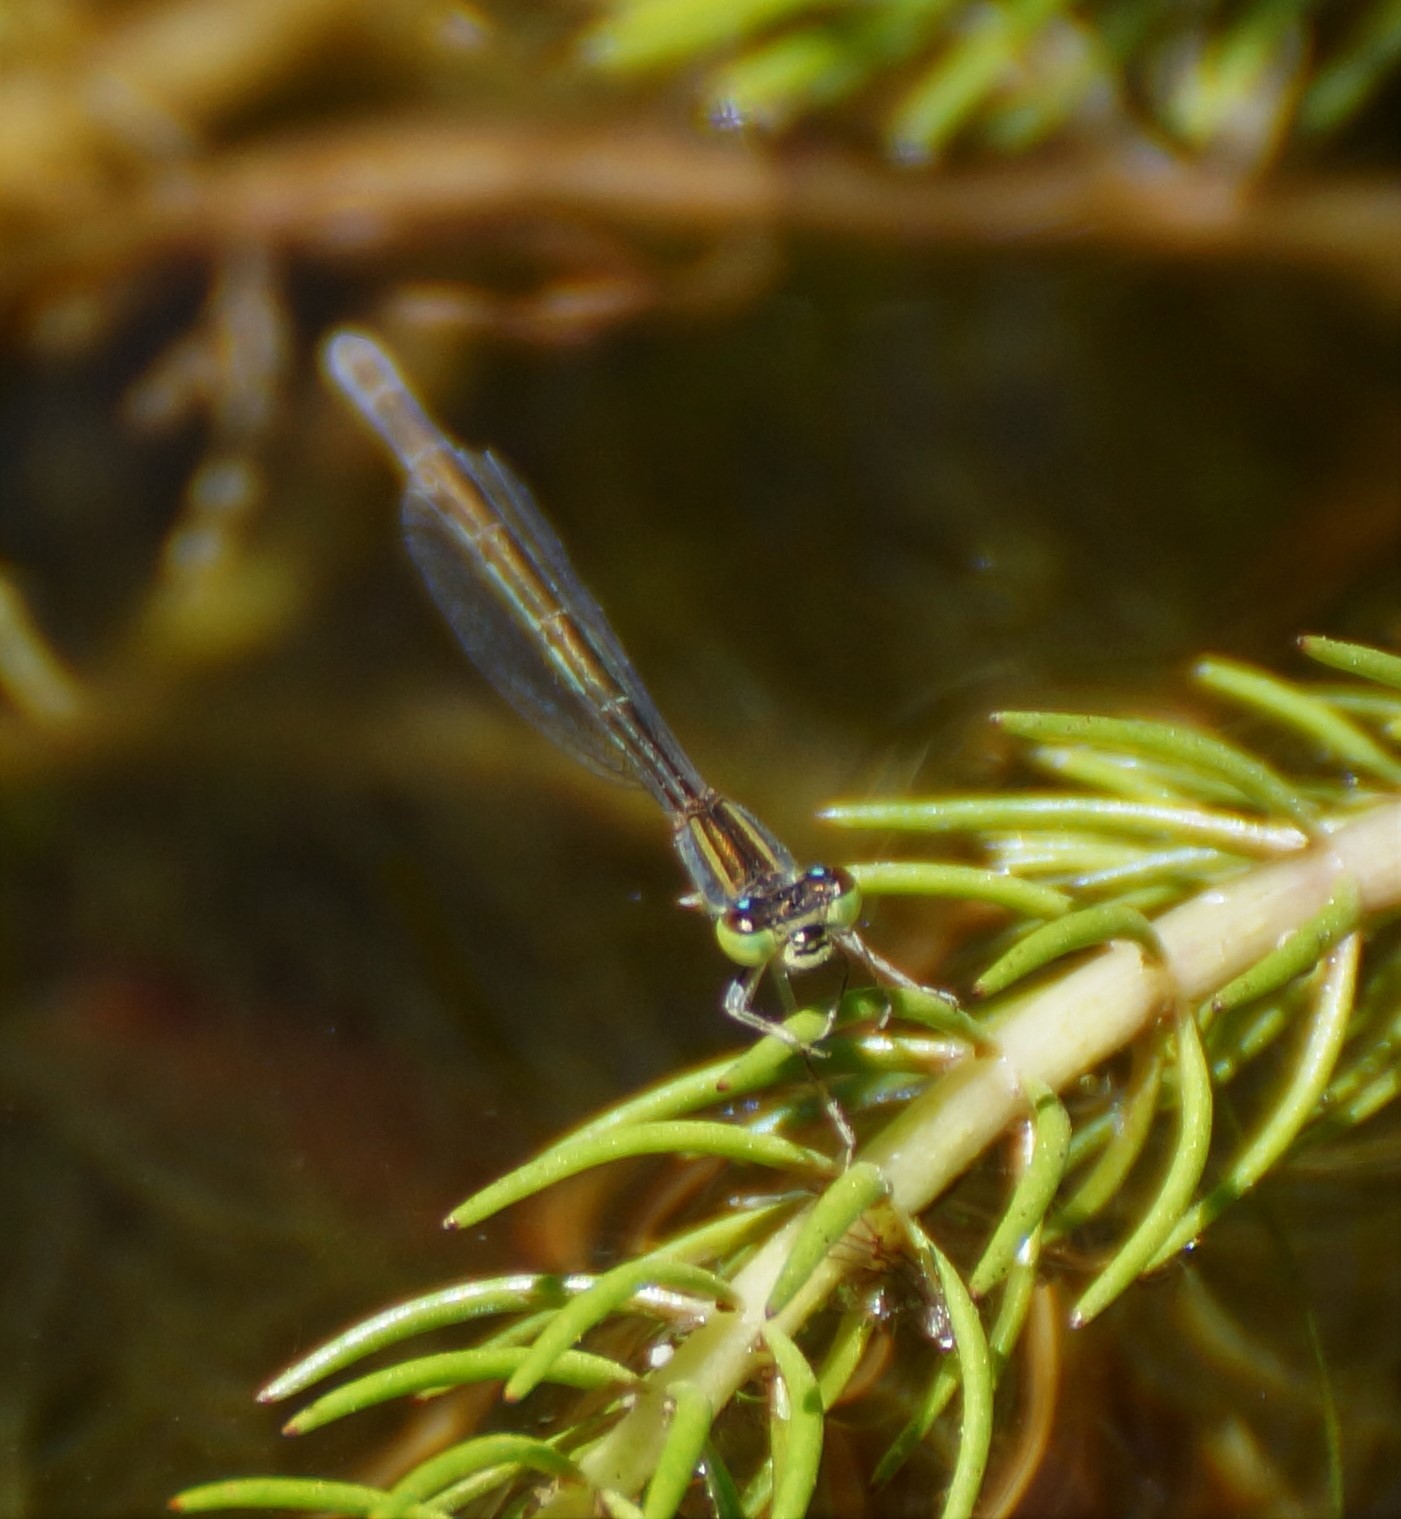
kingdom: Animalia
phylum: Arthropoda
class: Insecta
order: Odonata
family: Coenagrionidae
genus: Ischnura
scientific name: Ischnura aurora
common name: Gossamer damselfly
